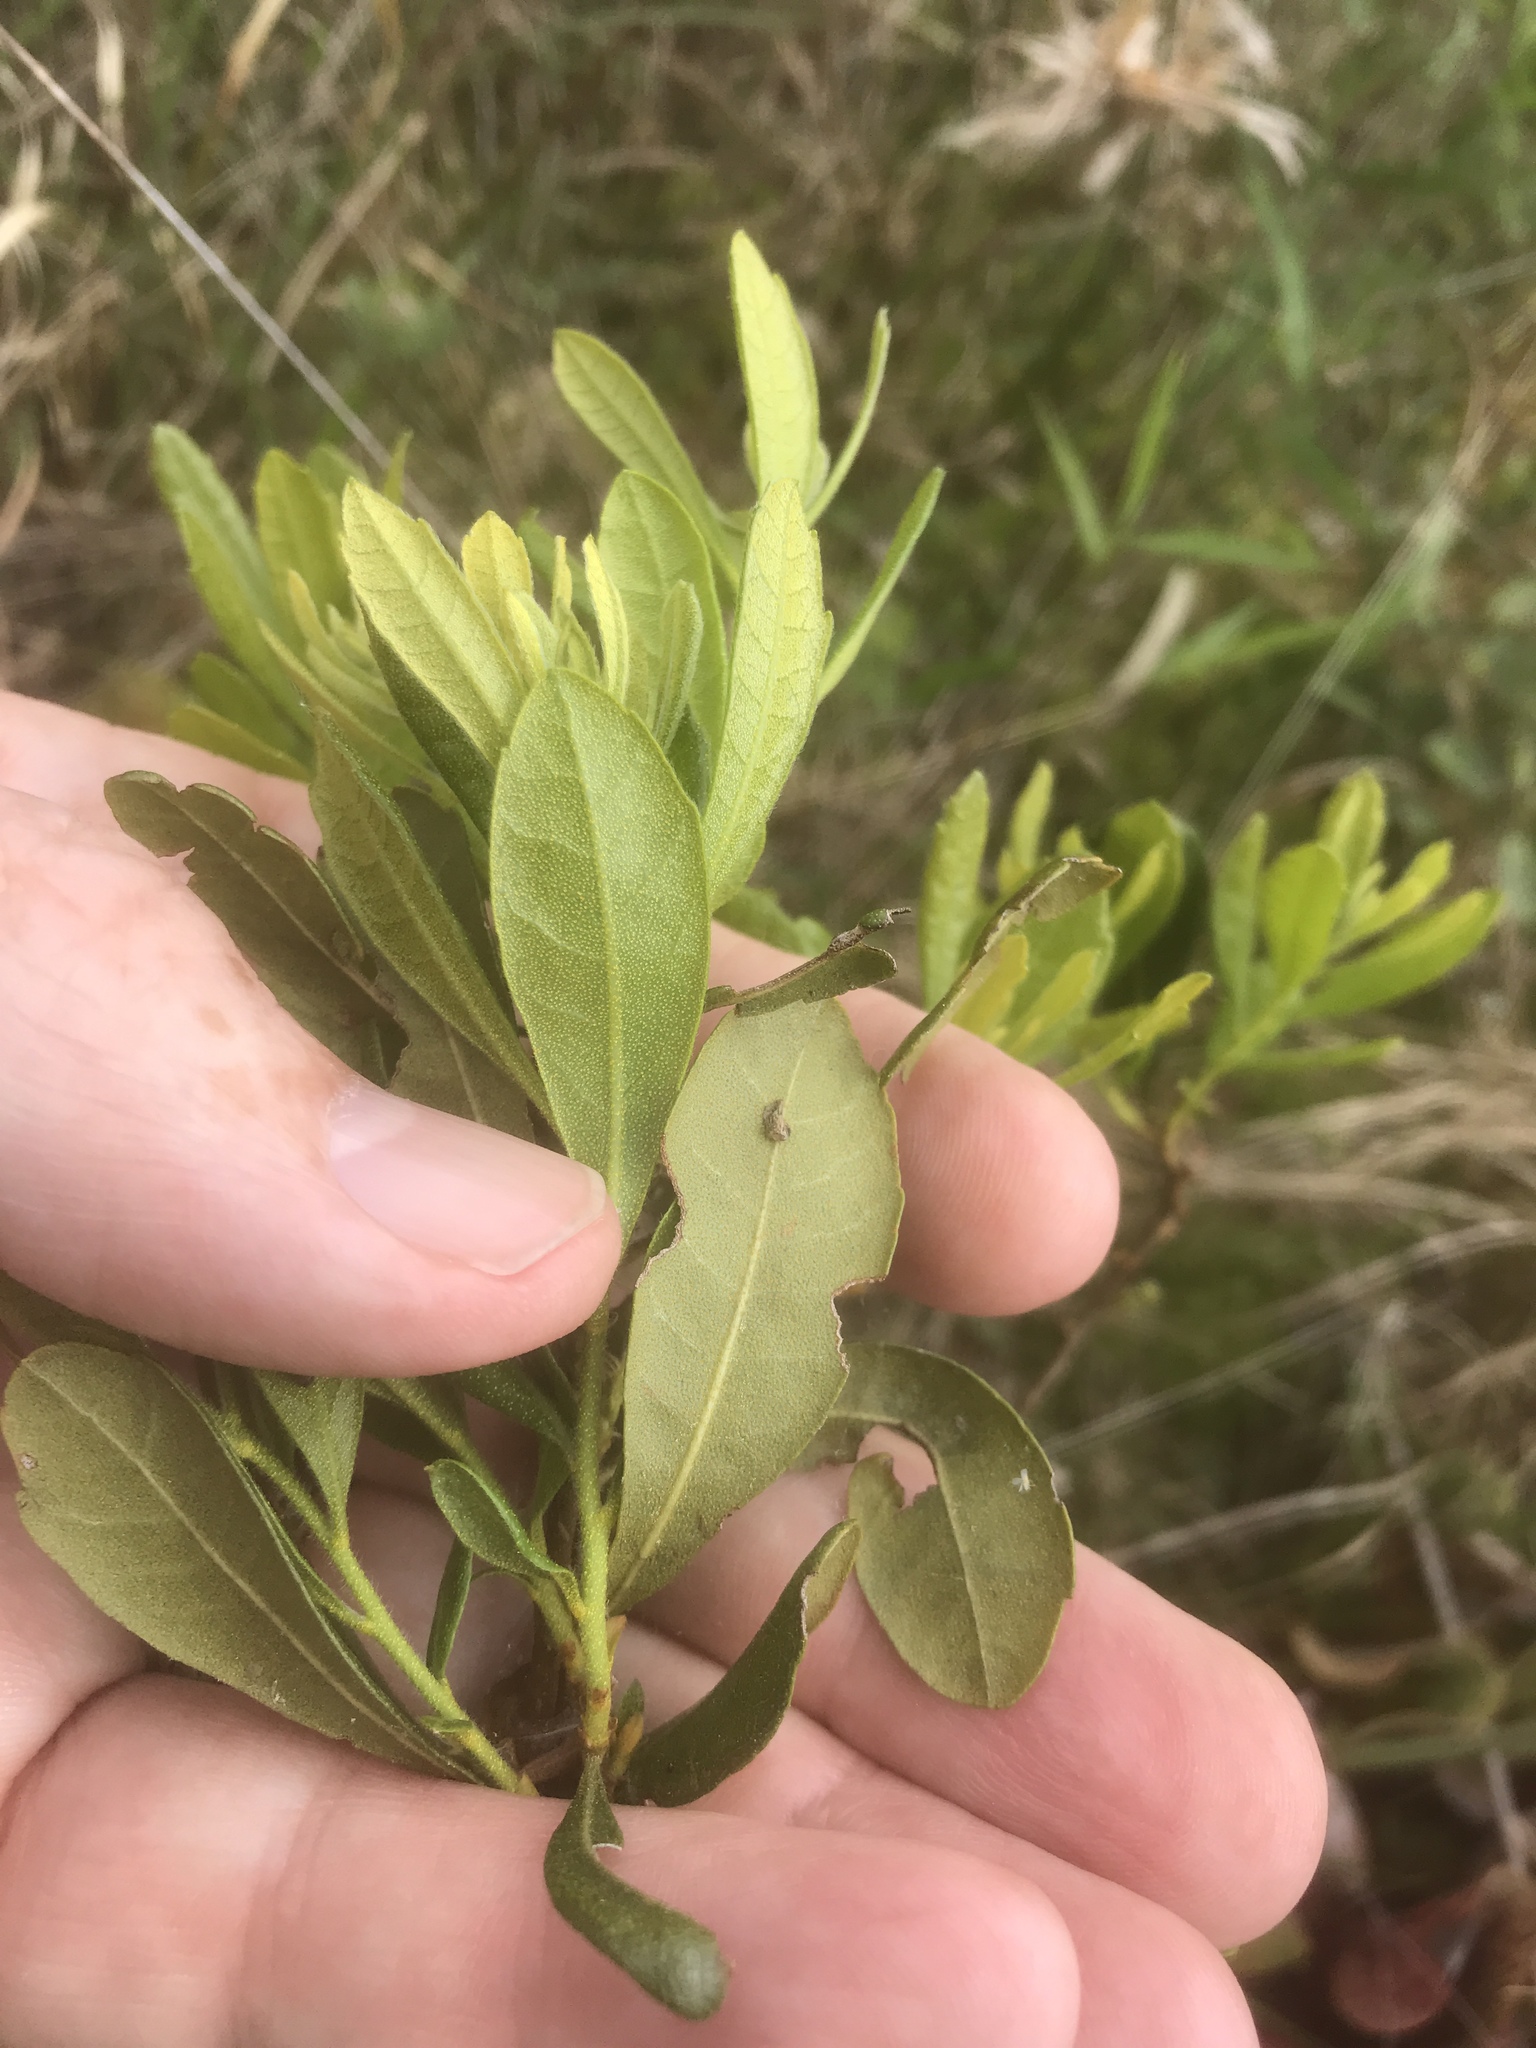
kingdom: Plantae
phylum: Tracheophyta
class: Magnoliopsida
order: Fagales
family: Myricaceae
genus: Morella
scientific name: Morella caroliniensis
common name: Evergreen bayberry
